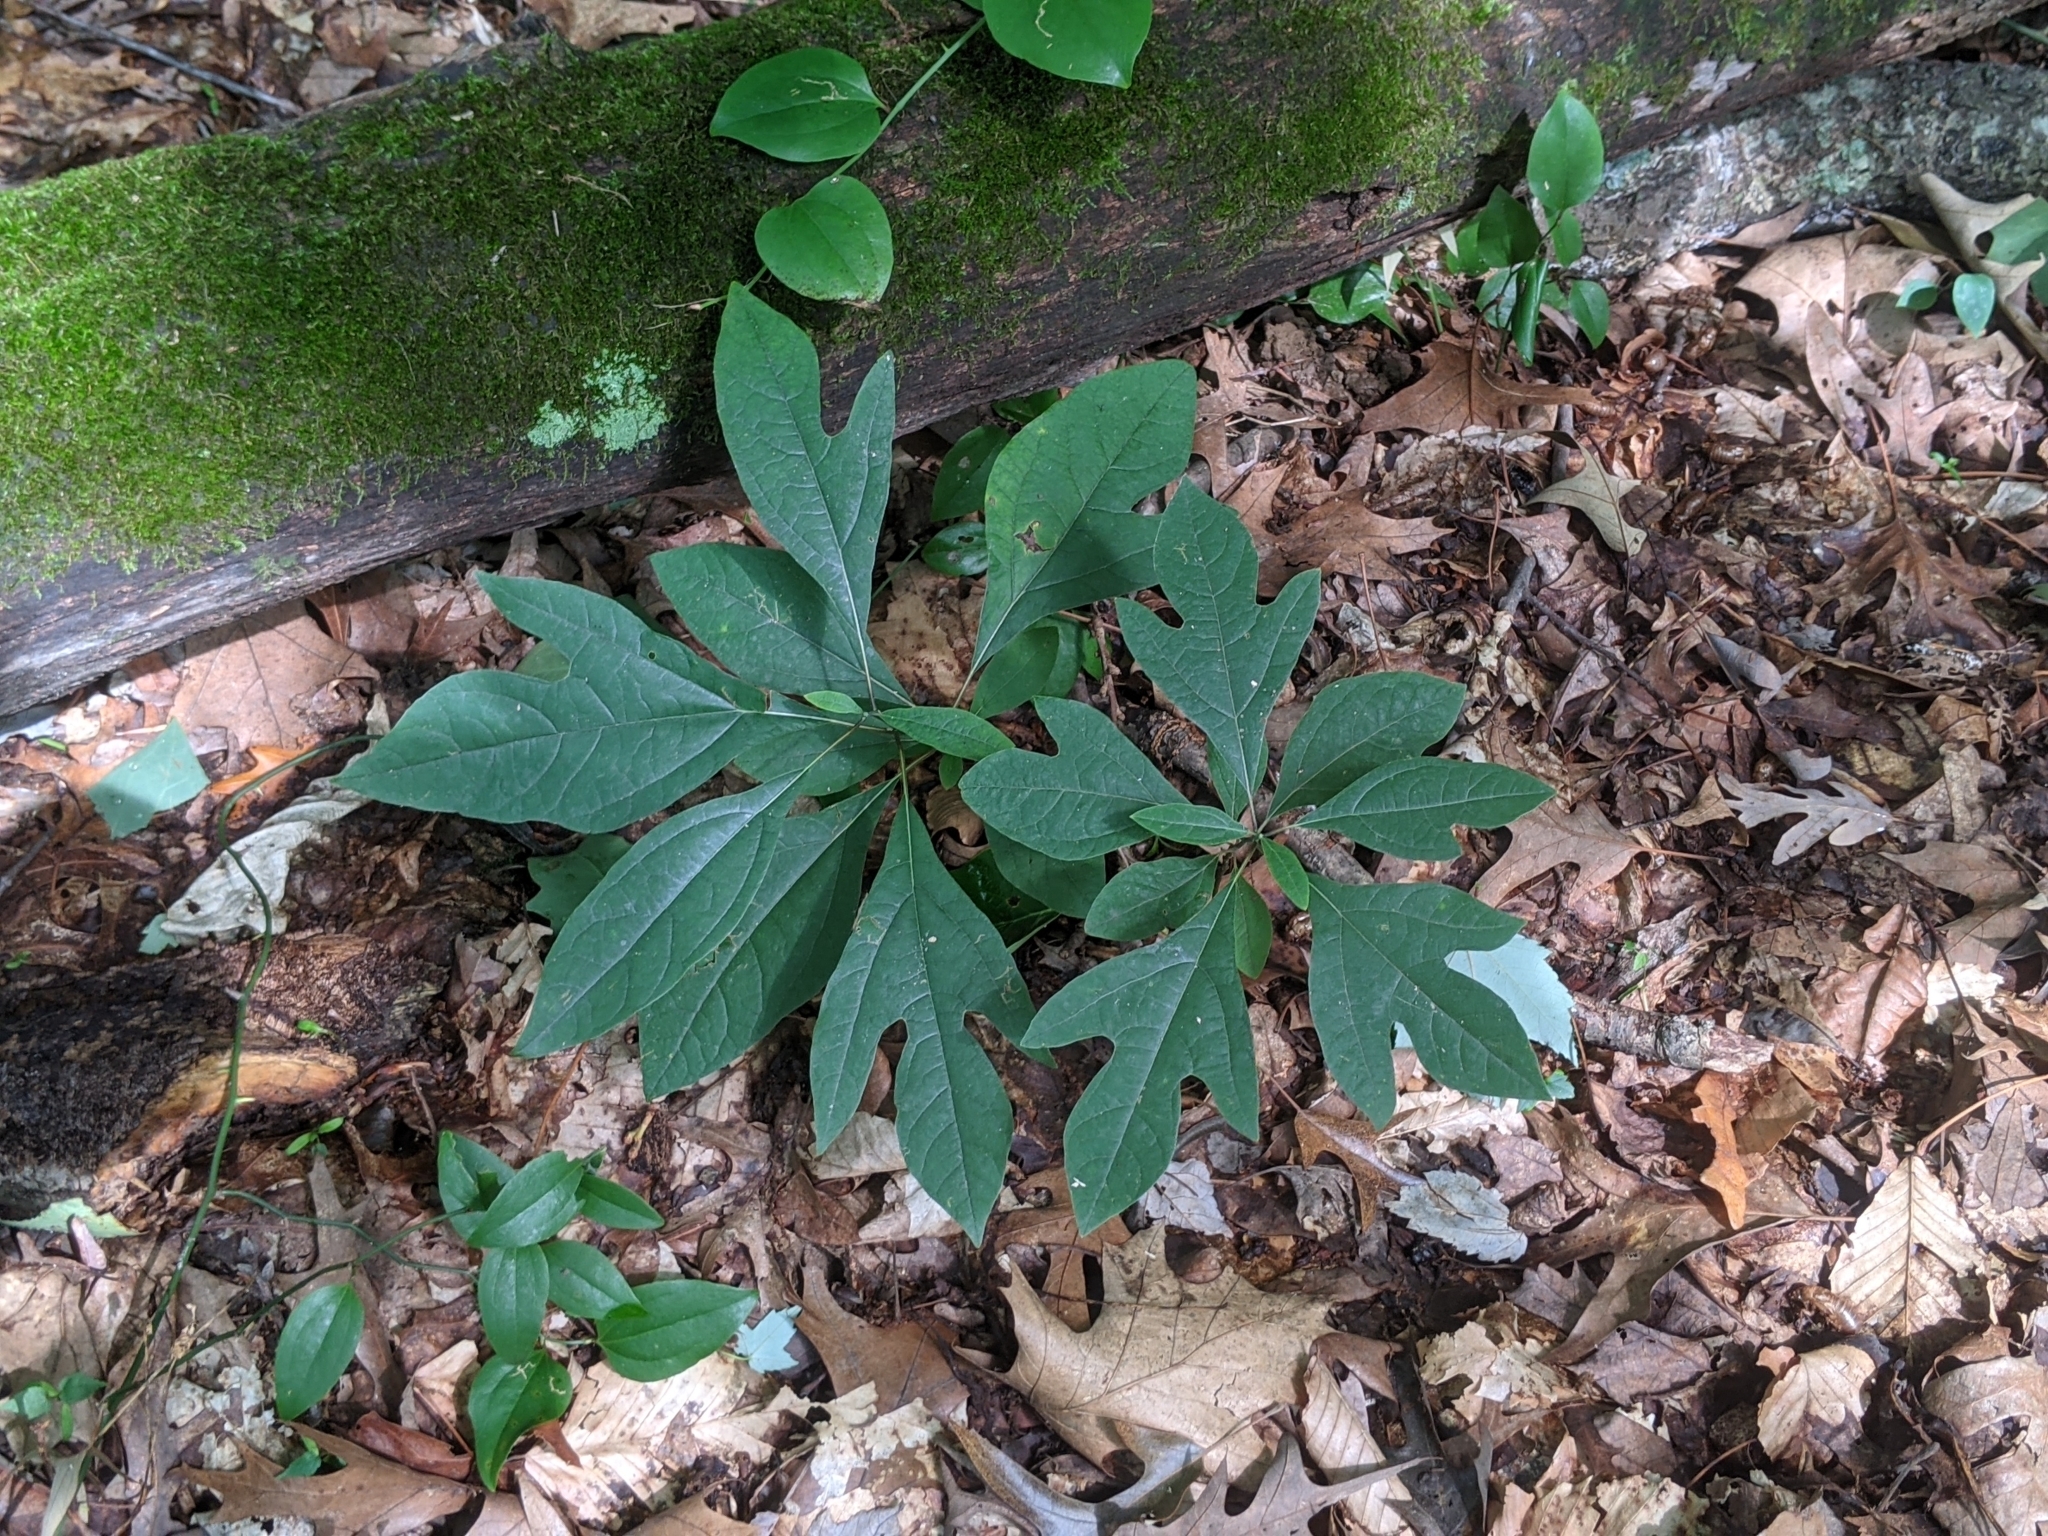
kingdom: Plantae
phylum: Tracheophyta
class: Magnoliopsida
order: Laurales
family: Lauraceae
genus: Sassafras
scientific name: Sassafras albidum
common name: Sassafras
